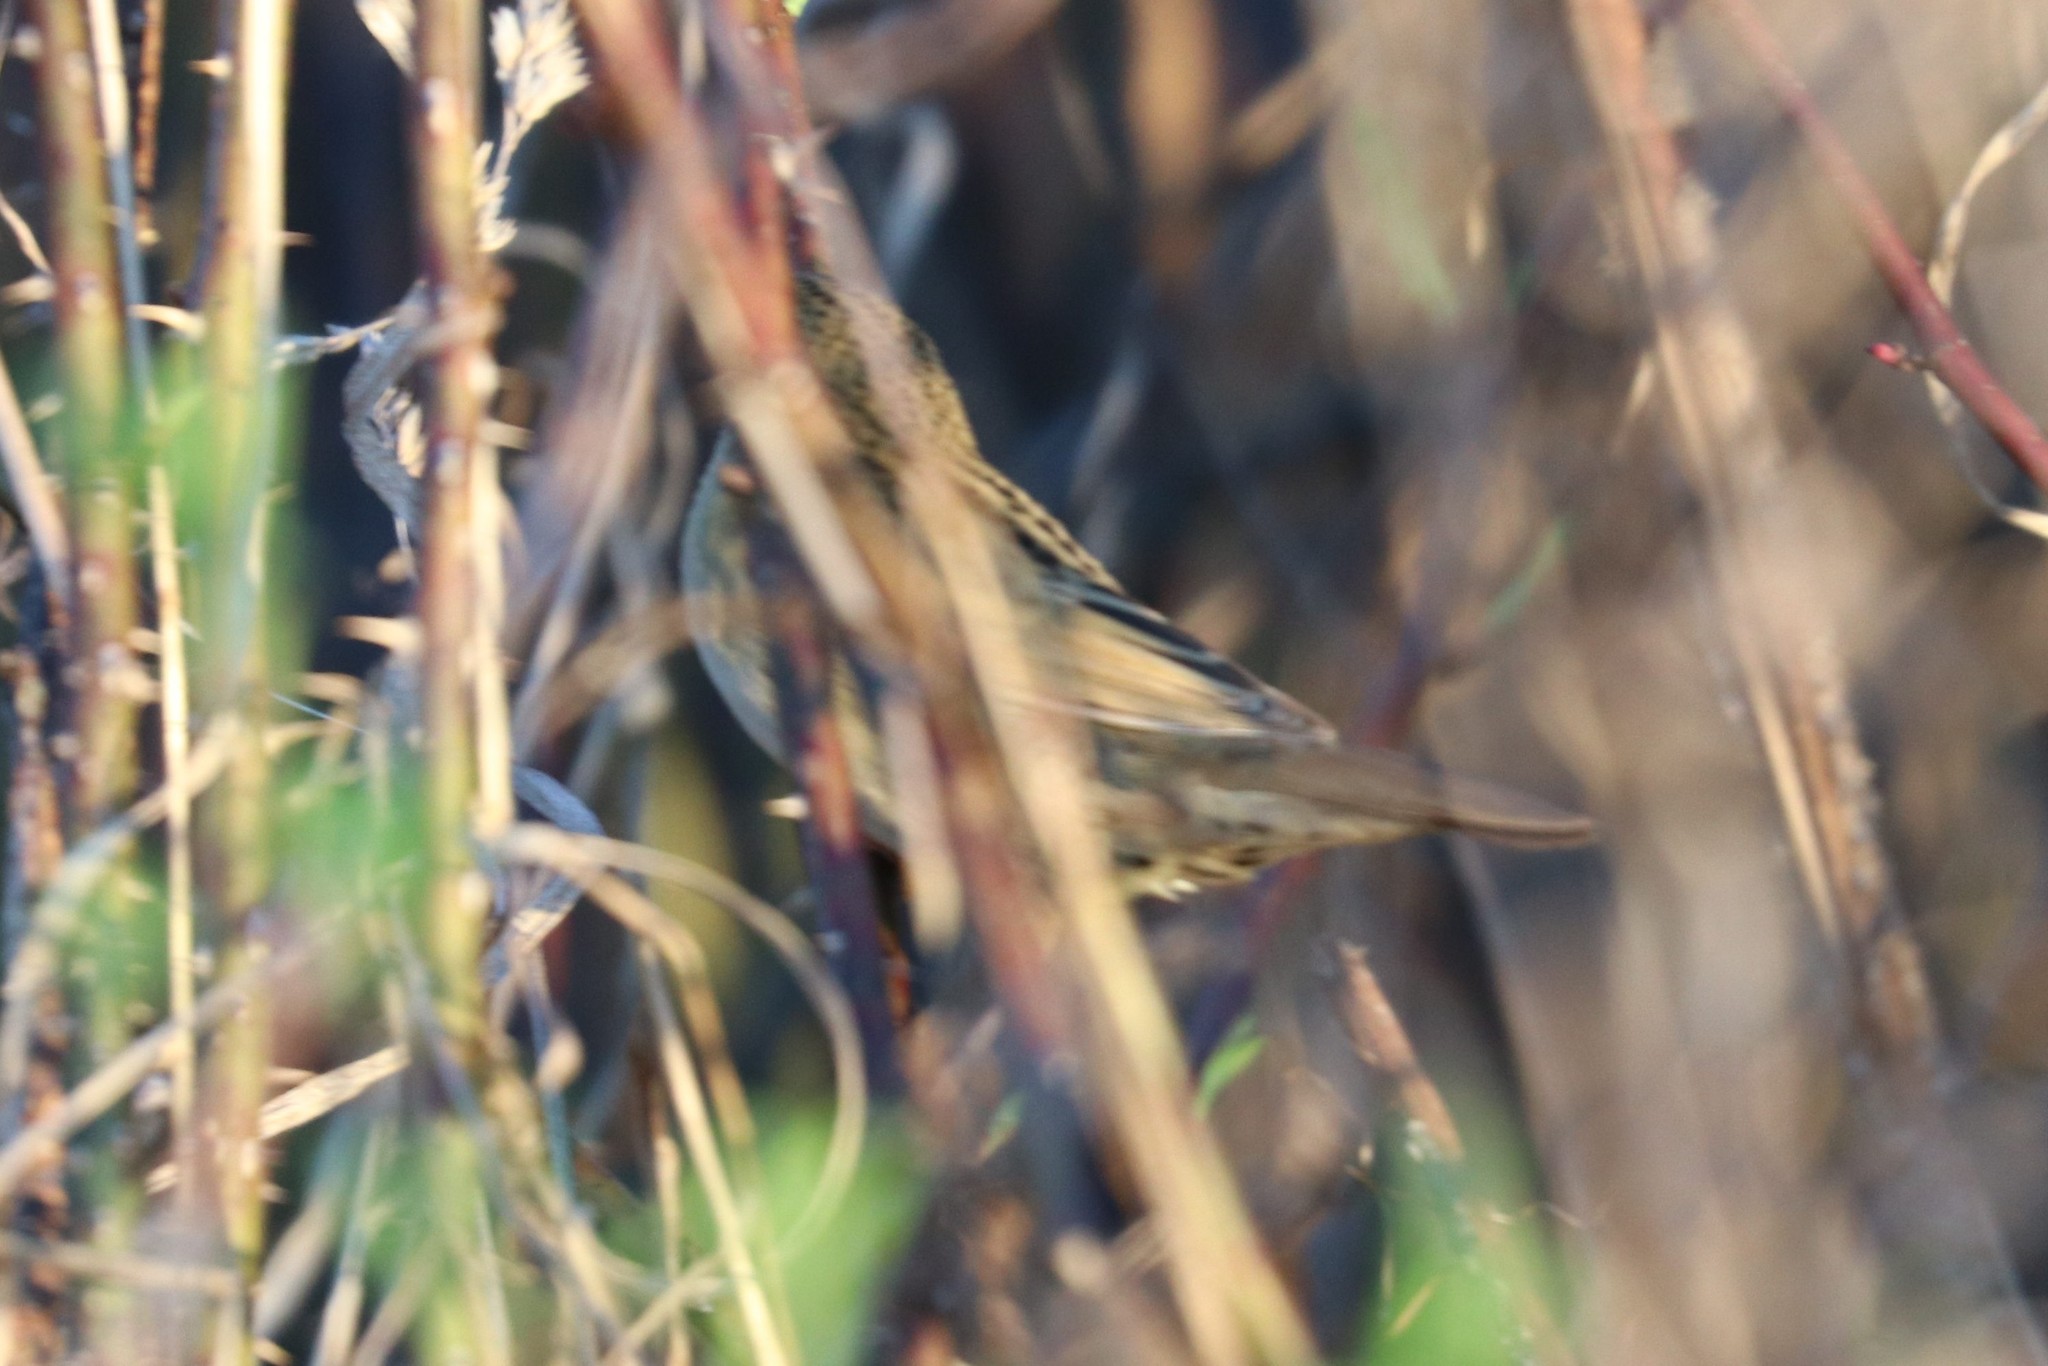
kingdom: Animalia
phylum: Chordata
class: Aves
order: Passeriformes
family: Locustellidae
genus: Locustella
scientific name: Locustella naevia
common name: Common grasshopper warbler
